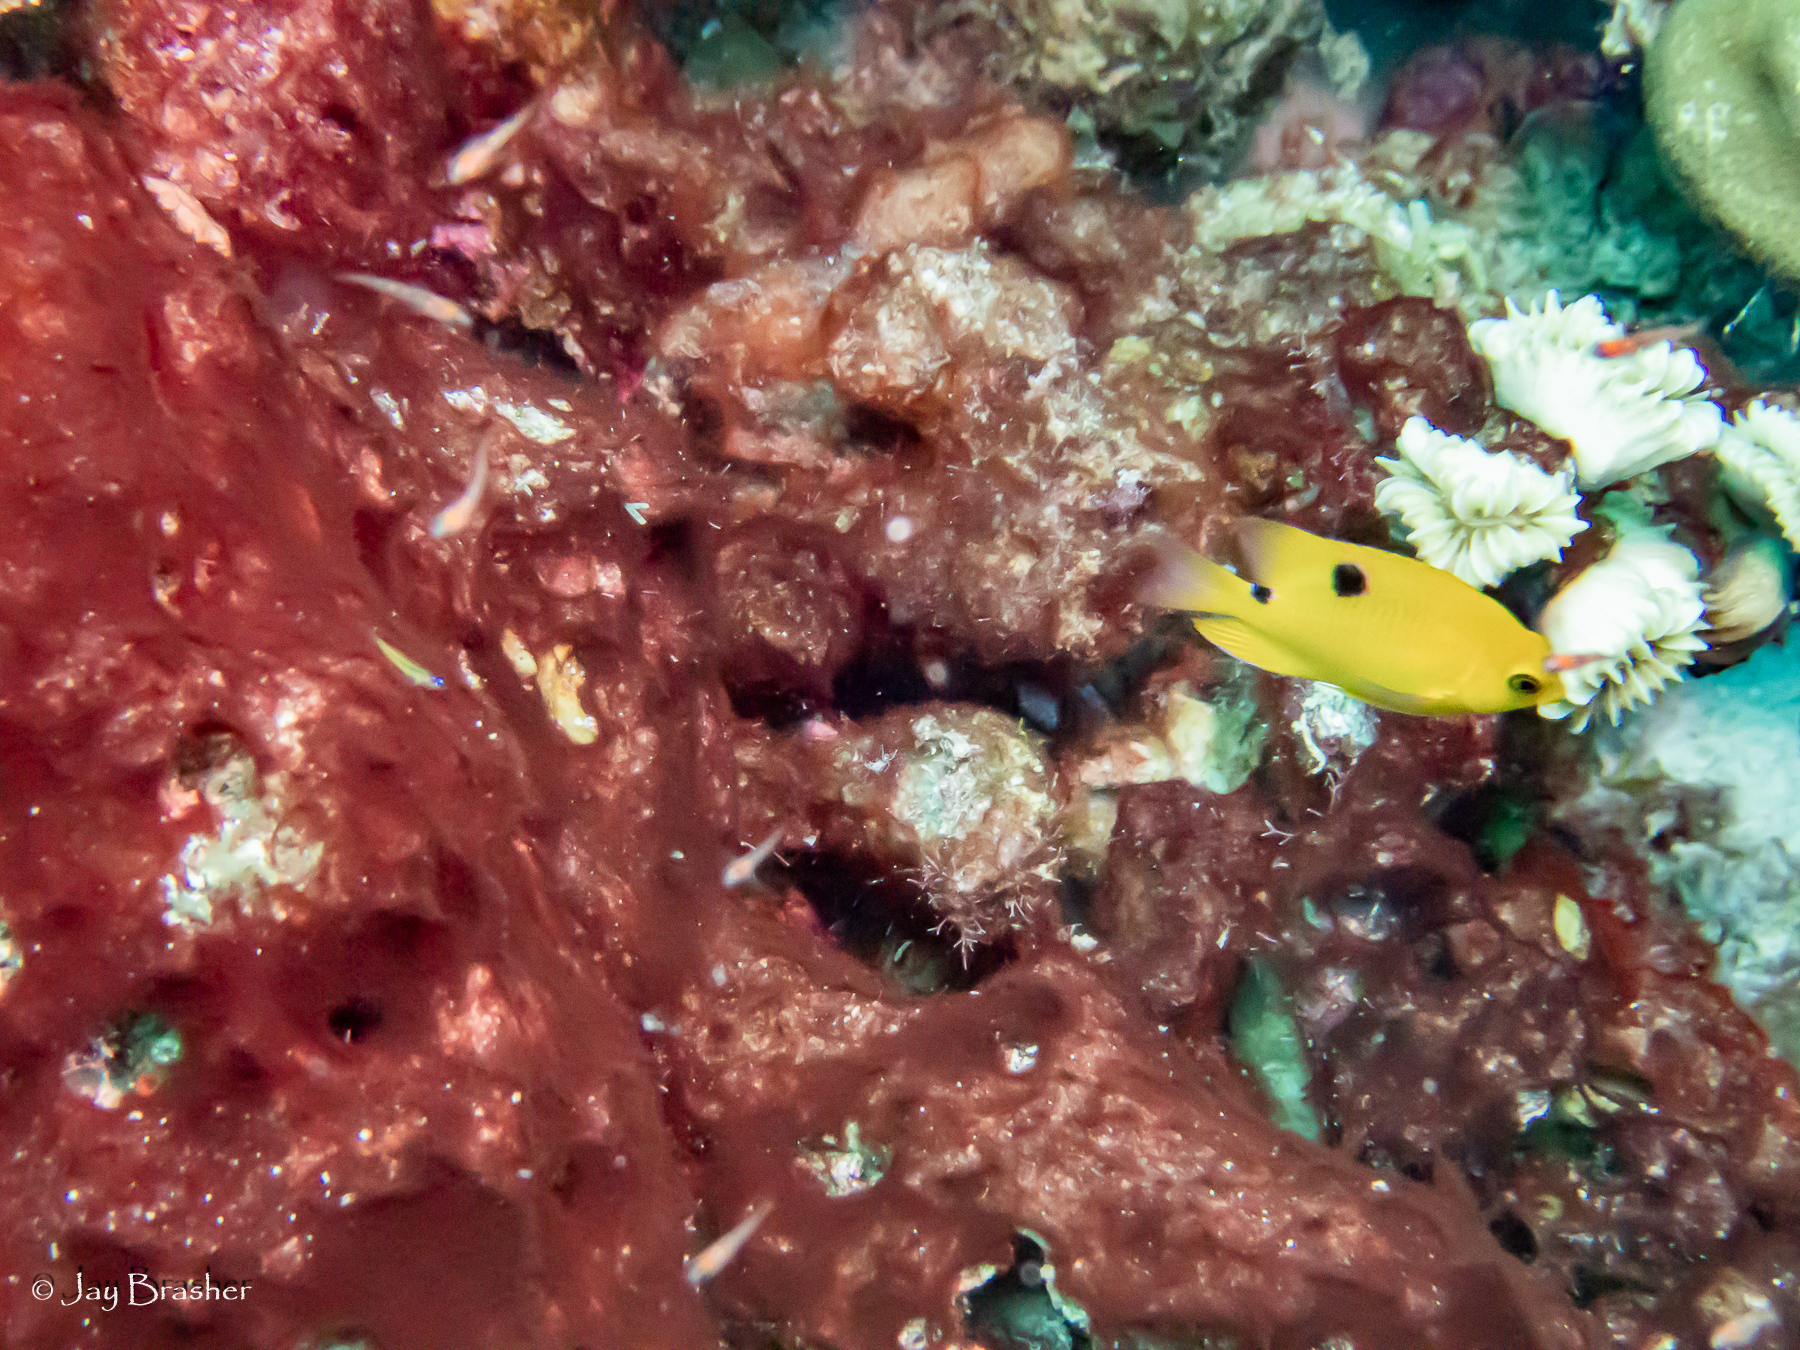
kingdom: Animalia
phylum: Chordata
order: Perciformes
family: Pomacentridae
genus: Stegastes
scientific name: Stegastes planifrons
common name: Threespot damselfish
